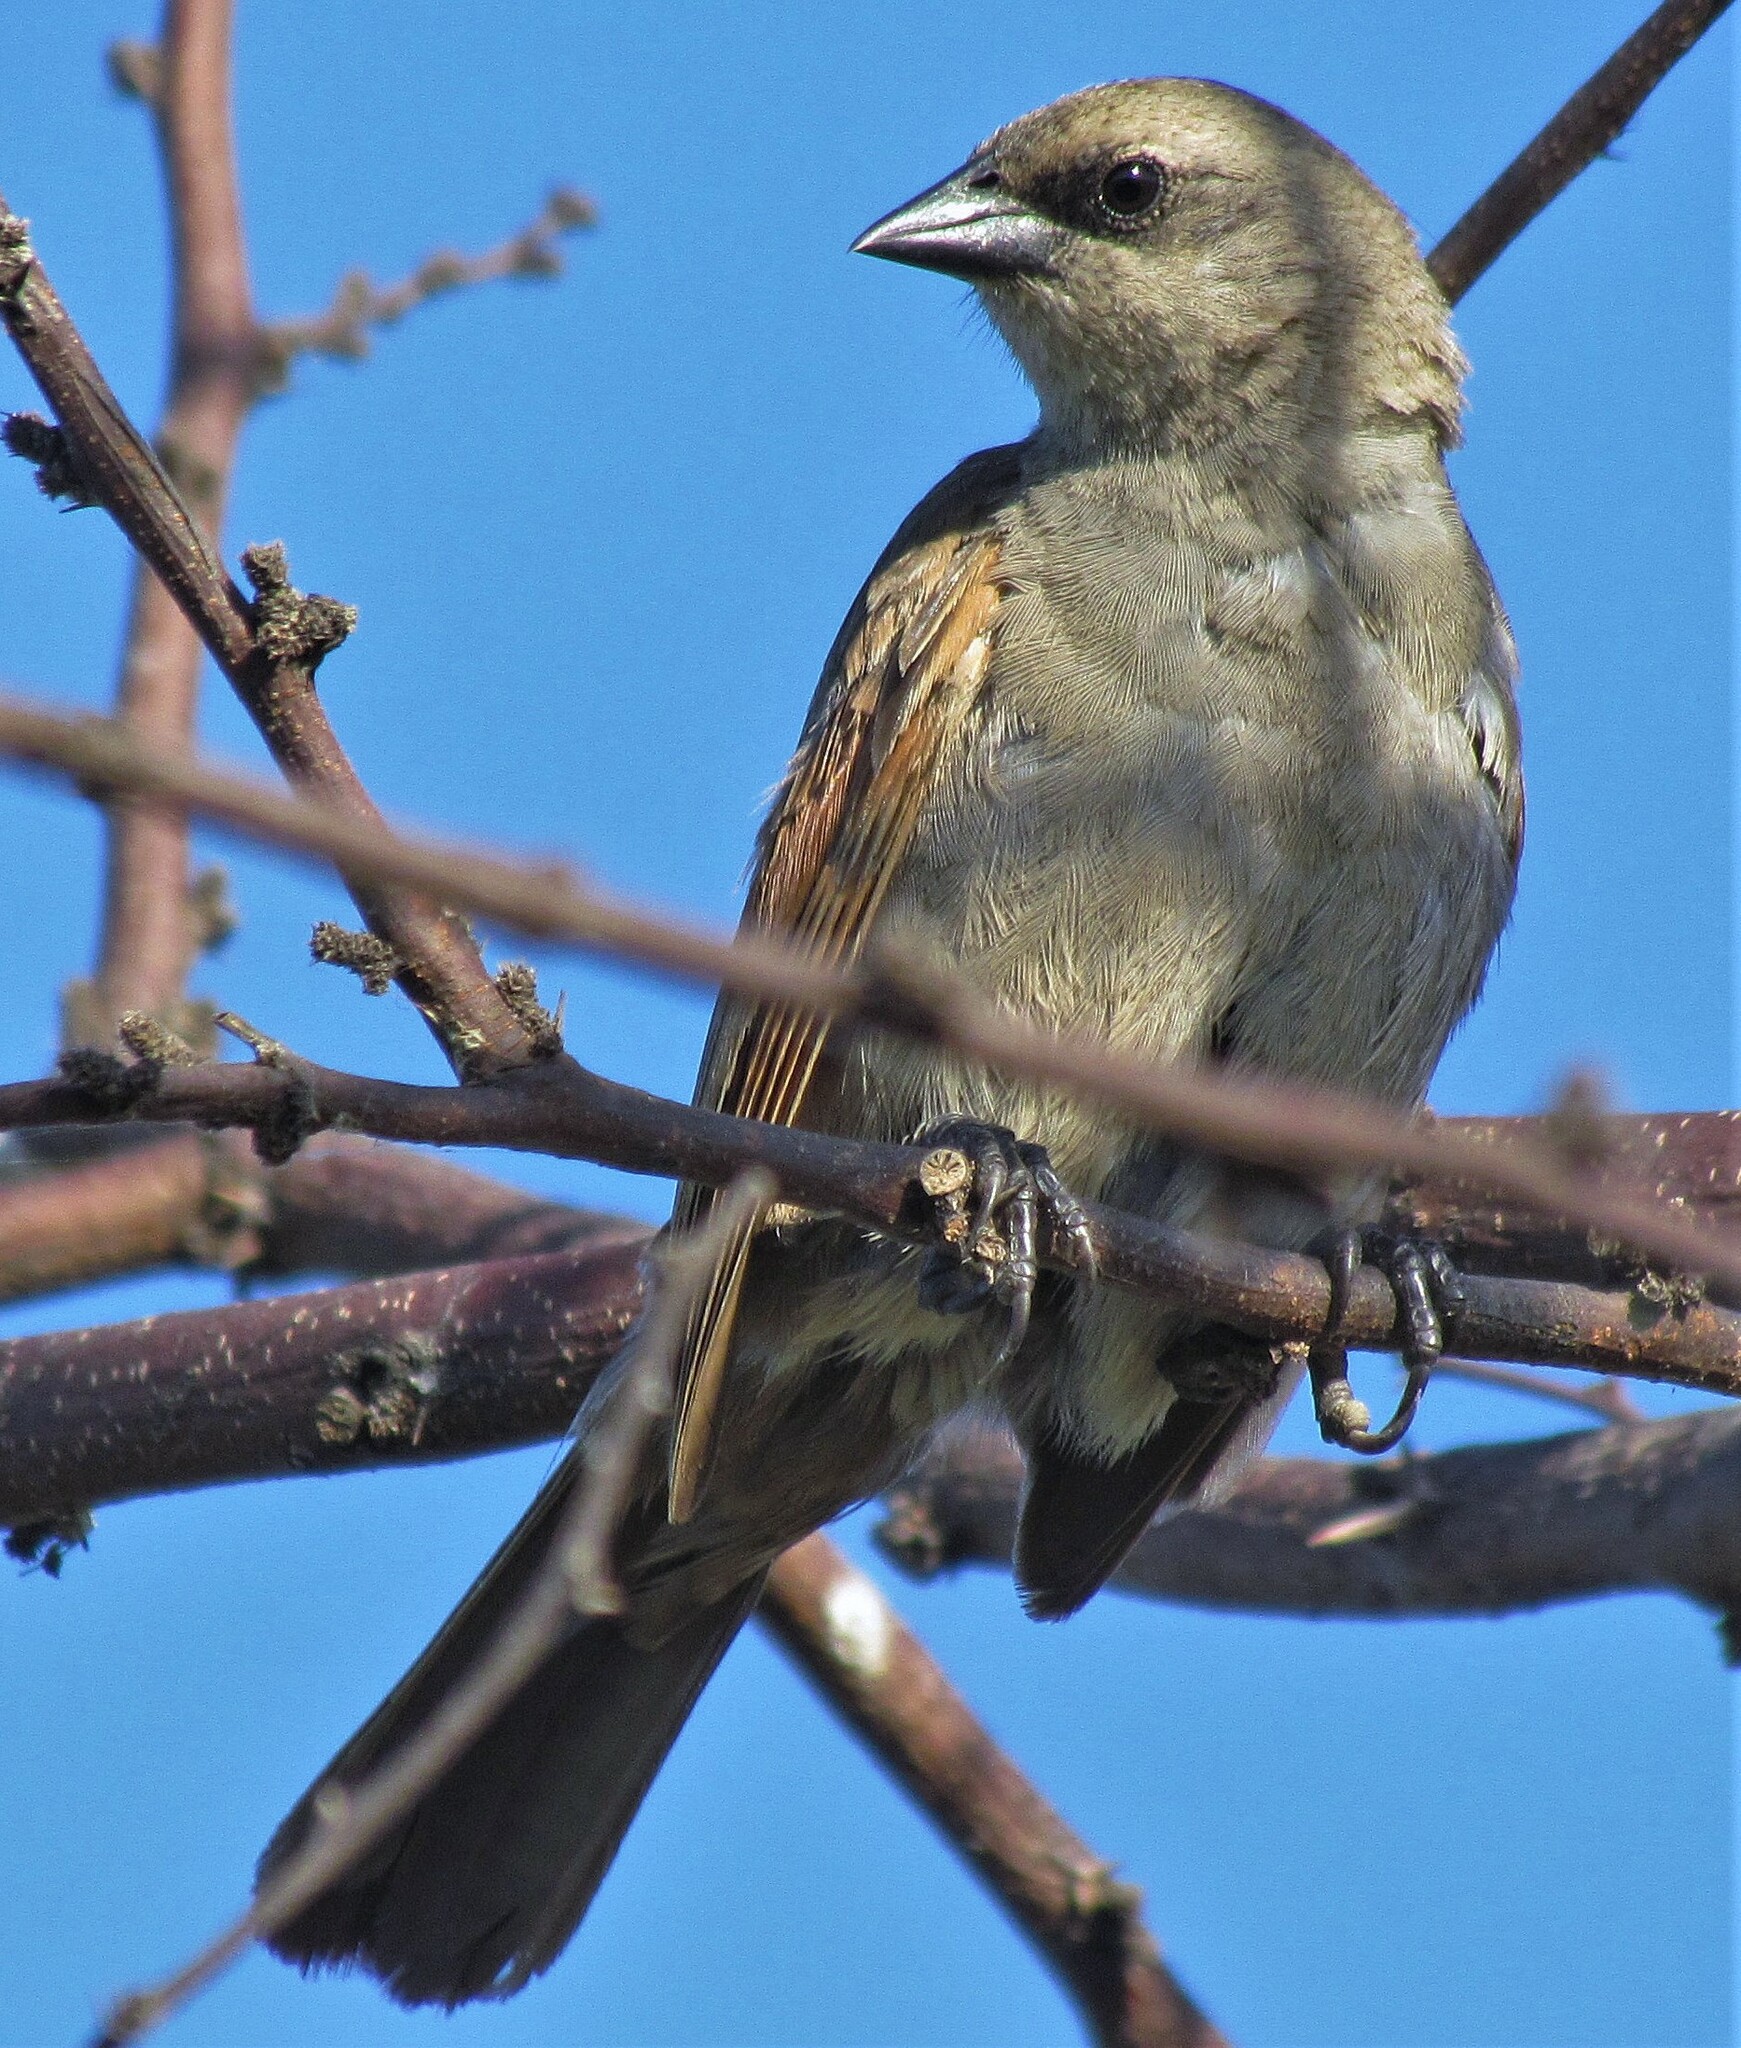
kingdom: Animalia
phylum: Chordata
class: Aves
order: Passeriformes
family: Icteridae
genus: Agelaioides
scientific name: Agelaioides badius
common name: Baywing
